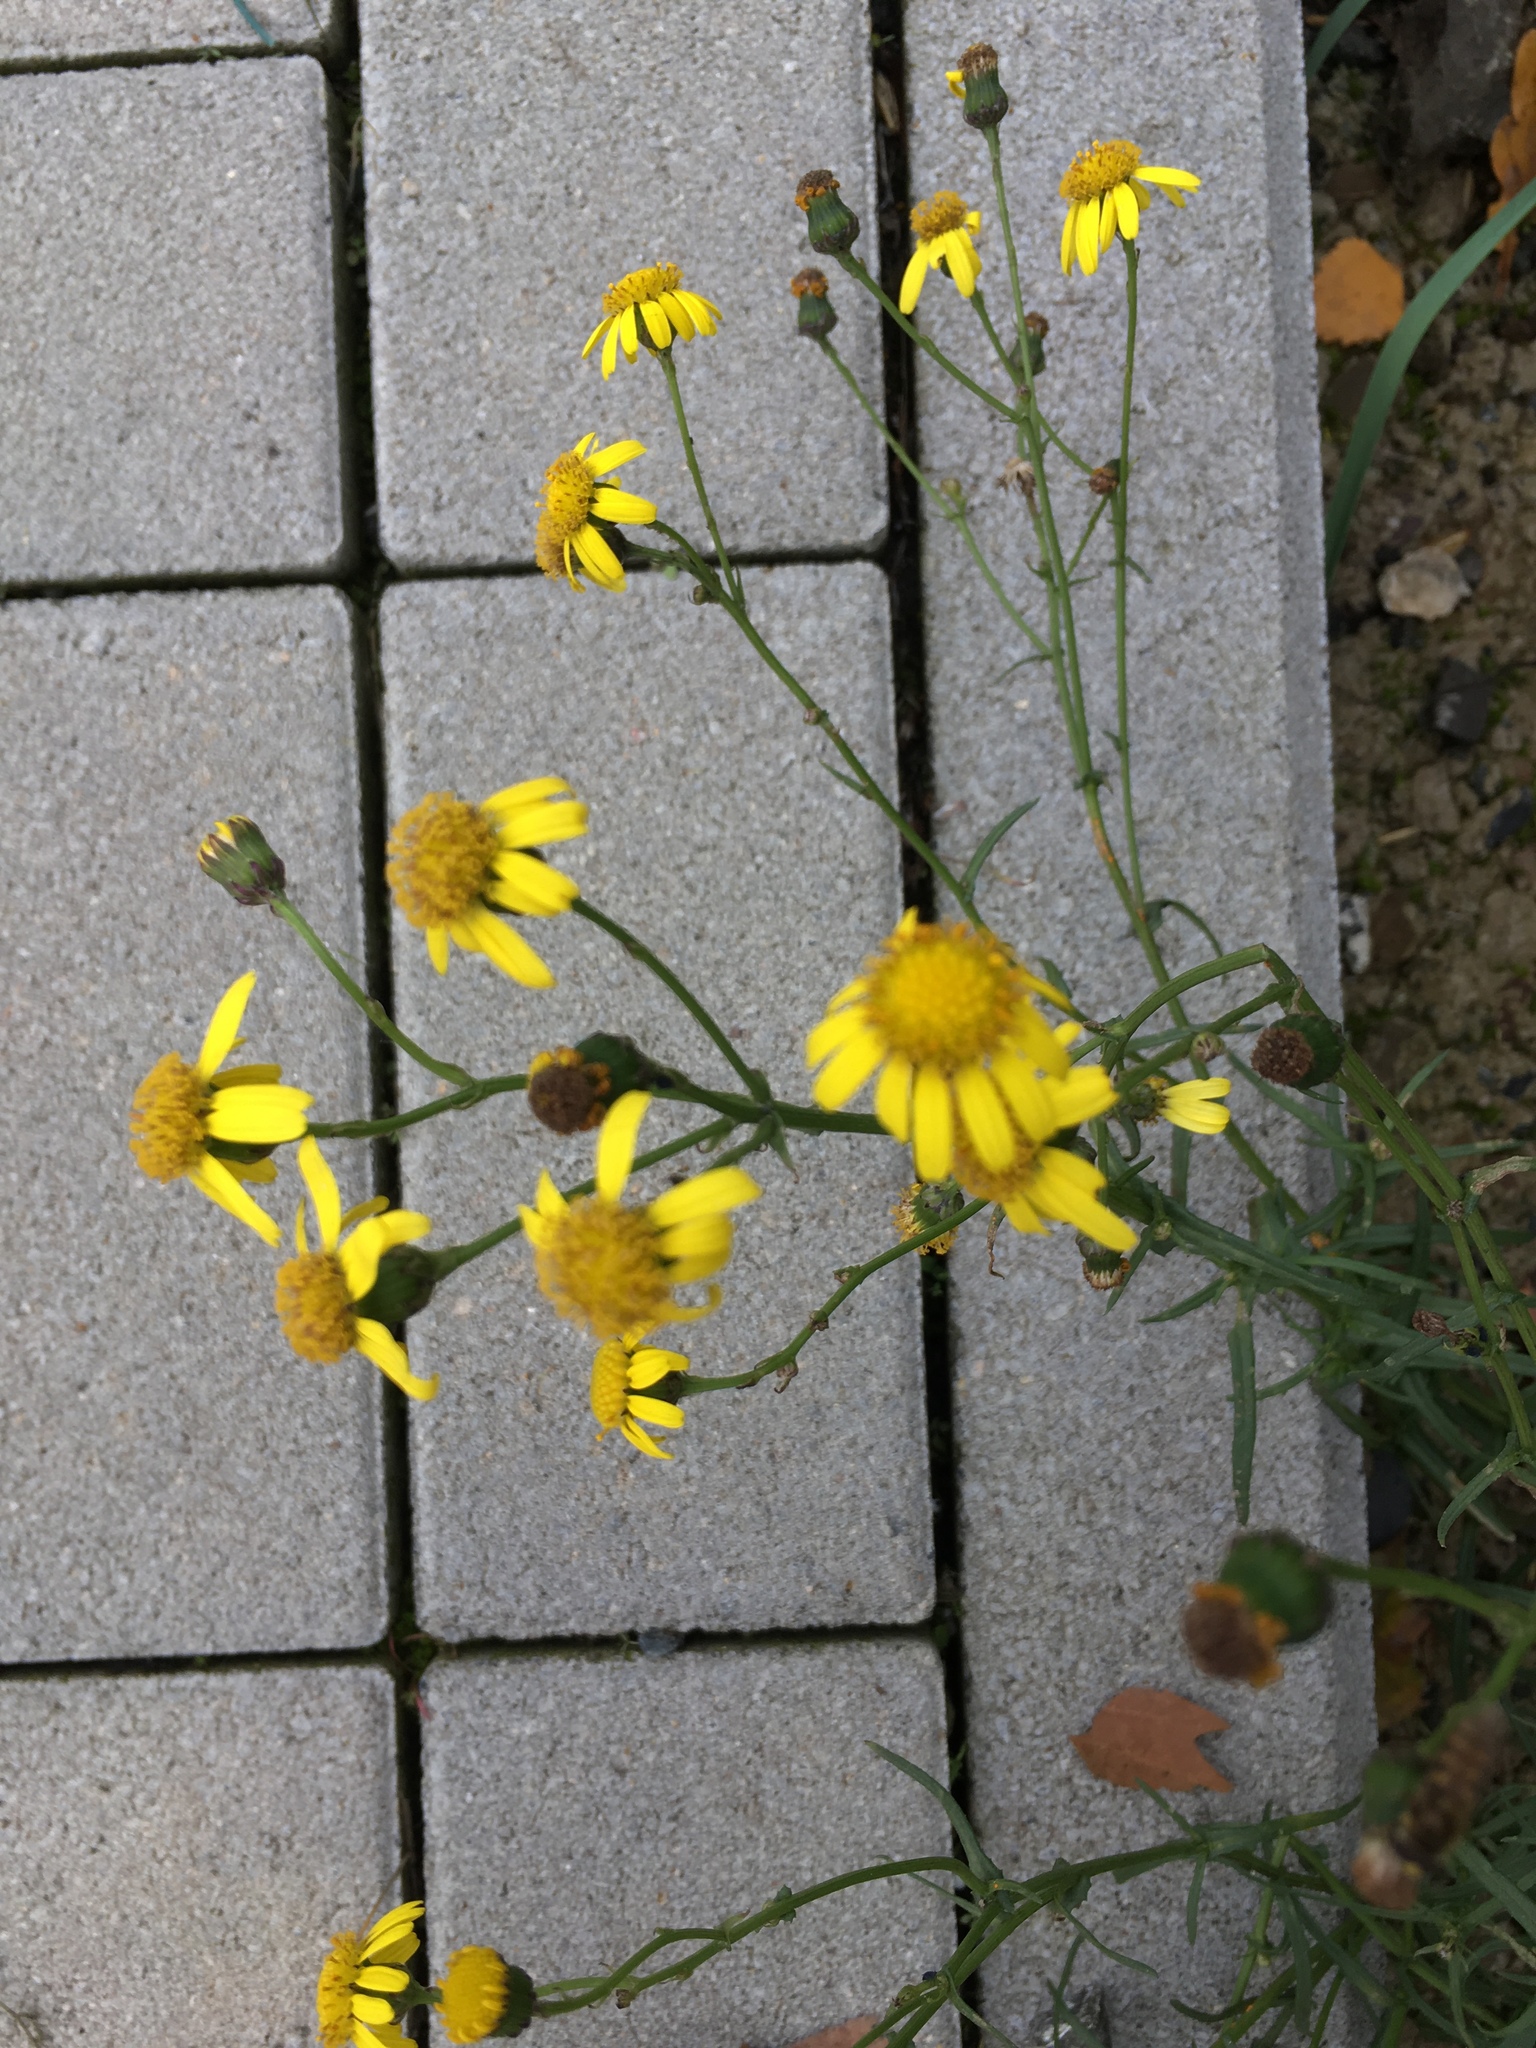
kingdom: Plantae
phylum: Tracheophyta
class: Magnoliopsida
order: Asterales
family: Asteraceae
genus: Senecio
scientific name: Senecio inaequidens
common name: Narrow-leaved ragwort
